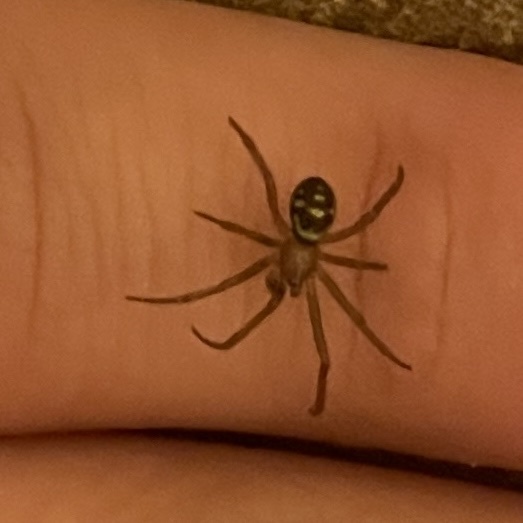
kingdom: Animalia
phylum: Arthropoda
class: Arachnida
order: Araneae
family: Theridiidae
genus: Steatoda
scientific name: Steatoda grossa
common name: False black widow
